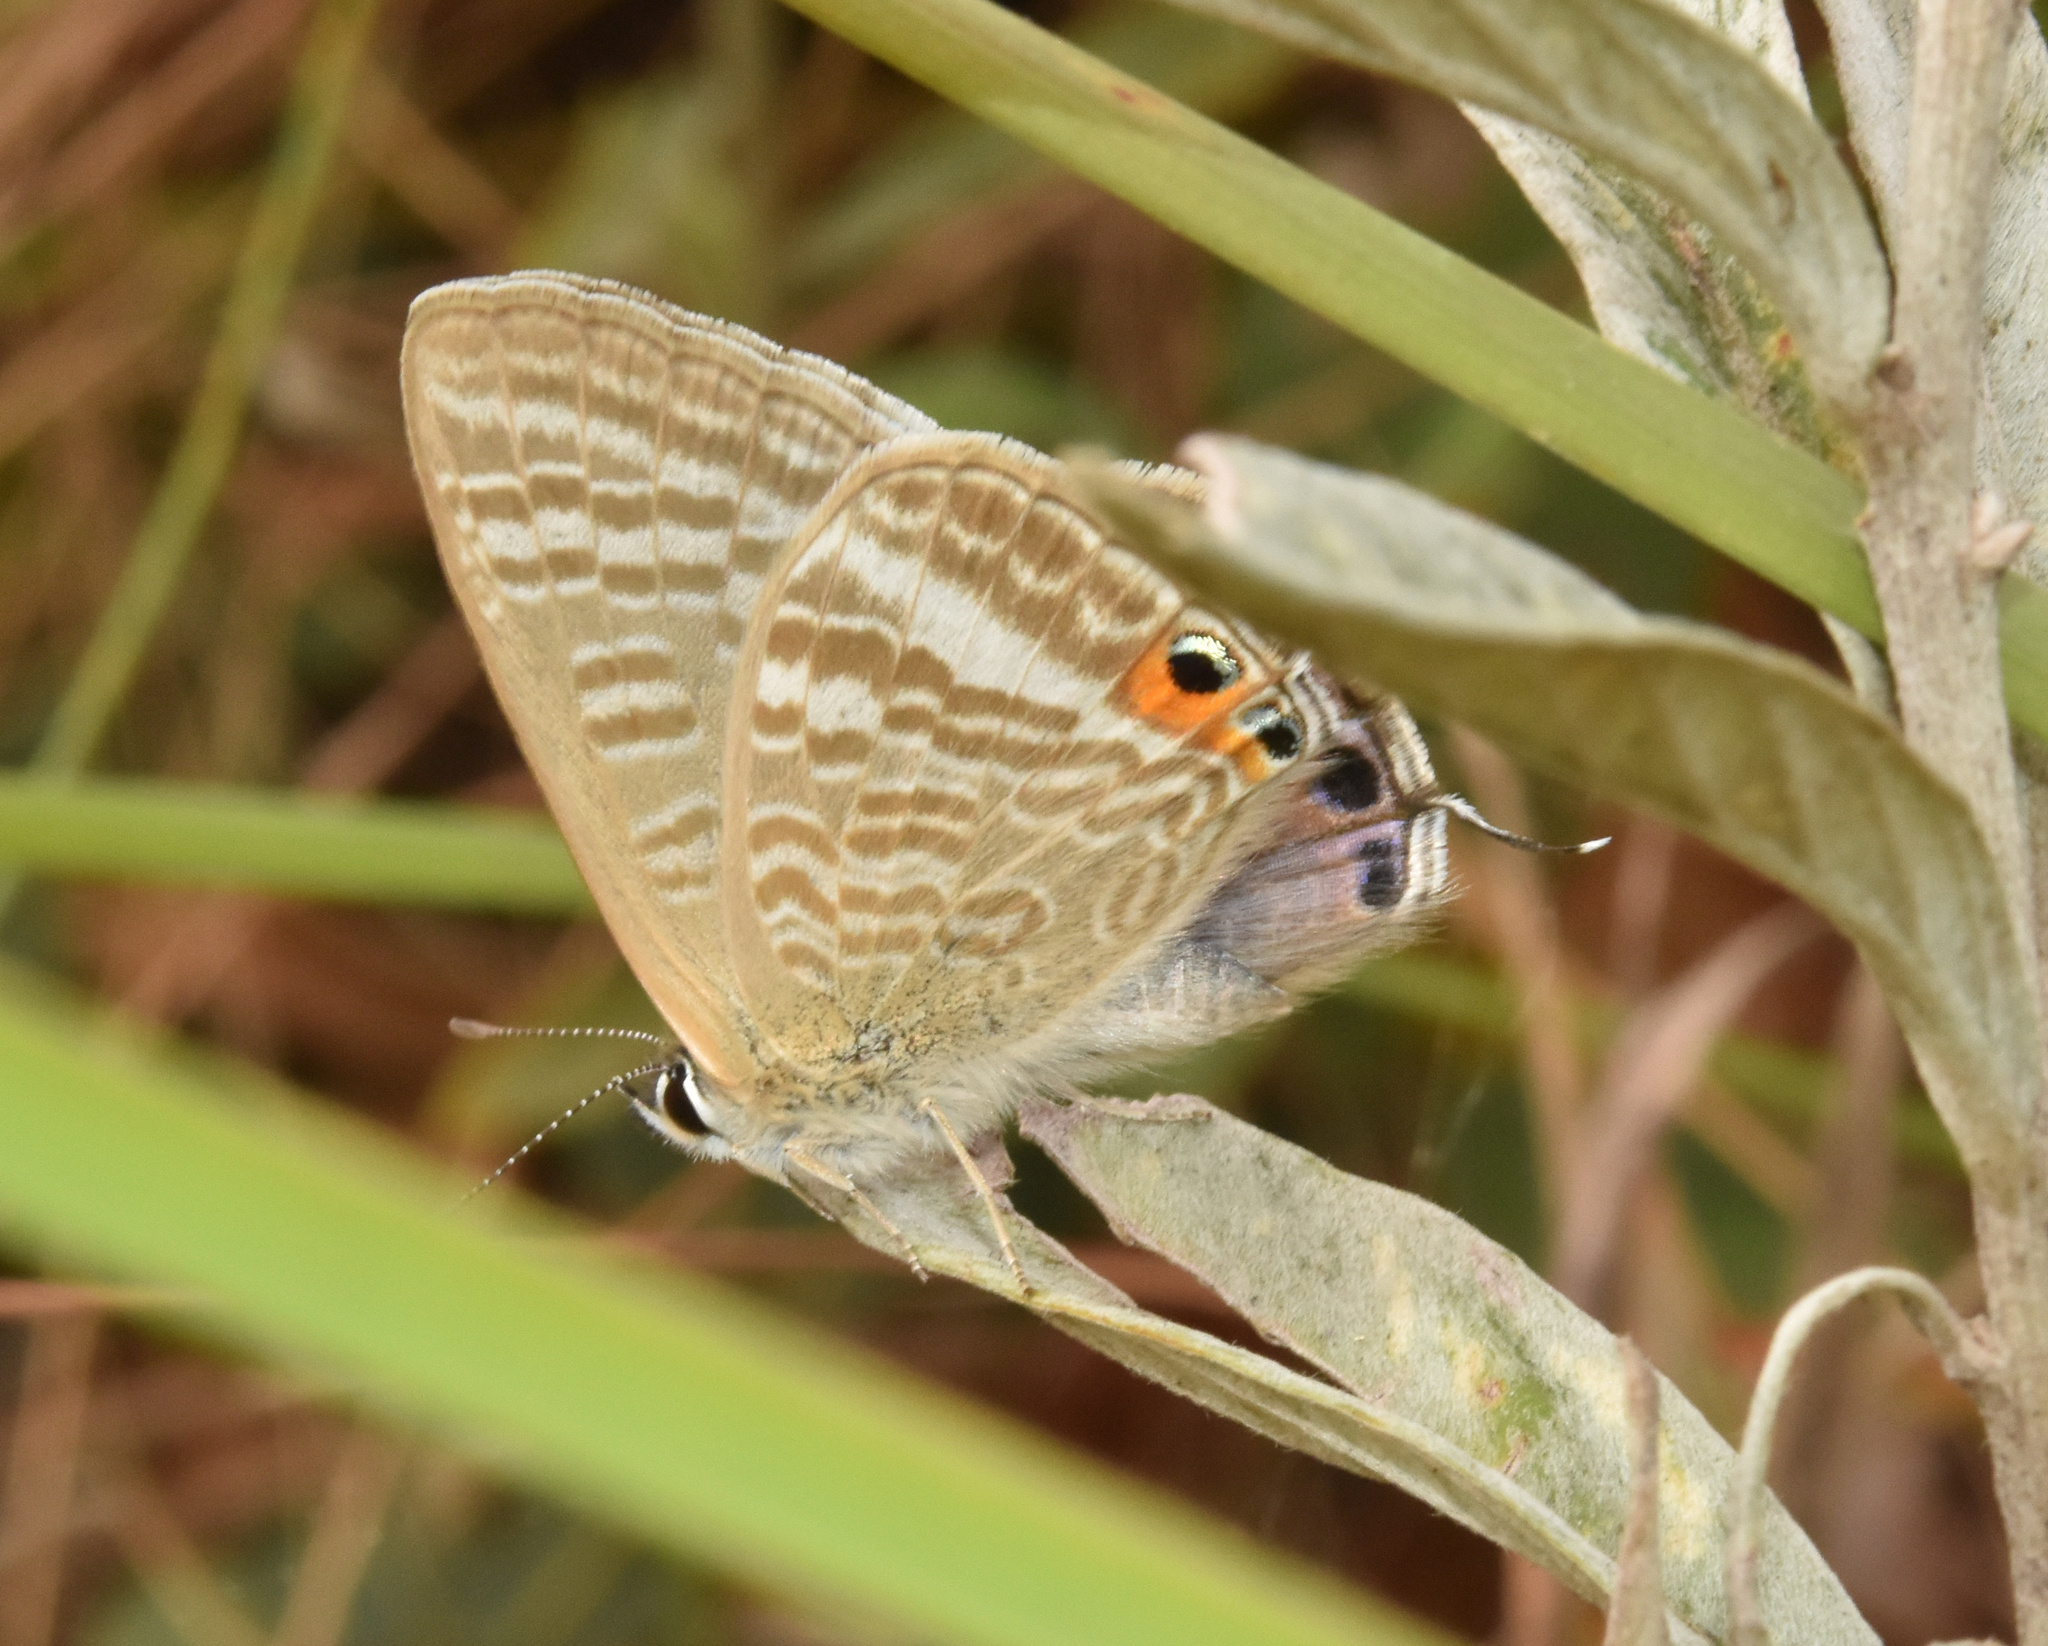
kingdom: Animalia
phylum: Arthropoda
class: Insecta
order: Lepidoptera
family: Lycaenidae
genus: Lampides
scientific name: Lampides boeticus
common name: Long-tailed blue
